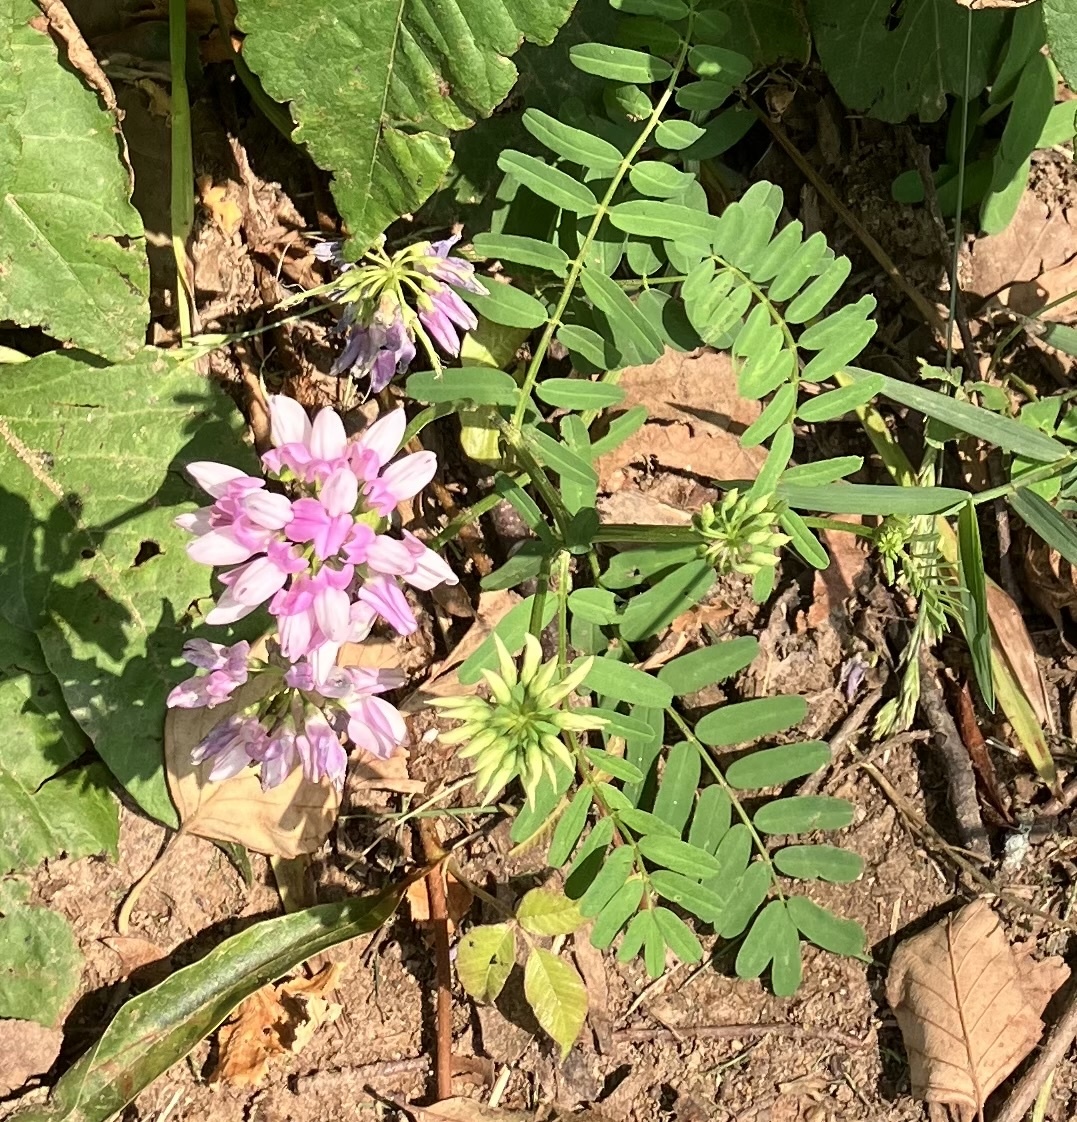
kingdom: Plantae
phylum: Tracheophyta
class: Magnoliopsida
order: Fabales
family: Fabaceae
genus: Coronilla
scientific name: Coronilla varia
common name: Crownvetch
